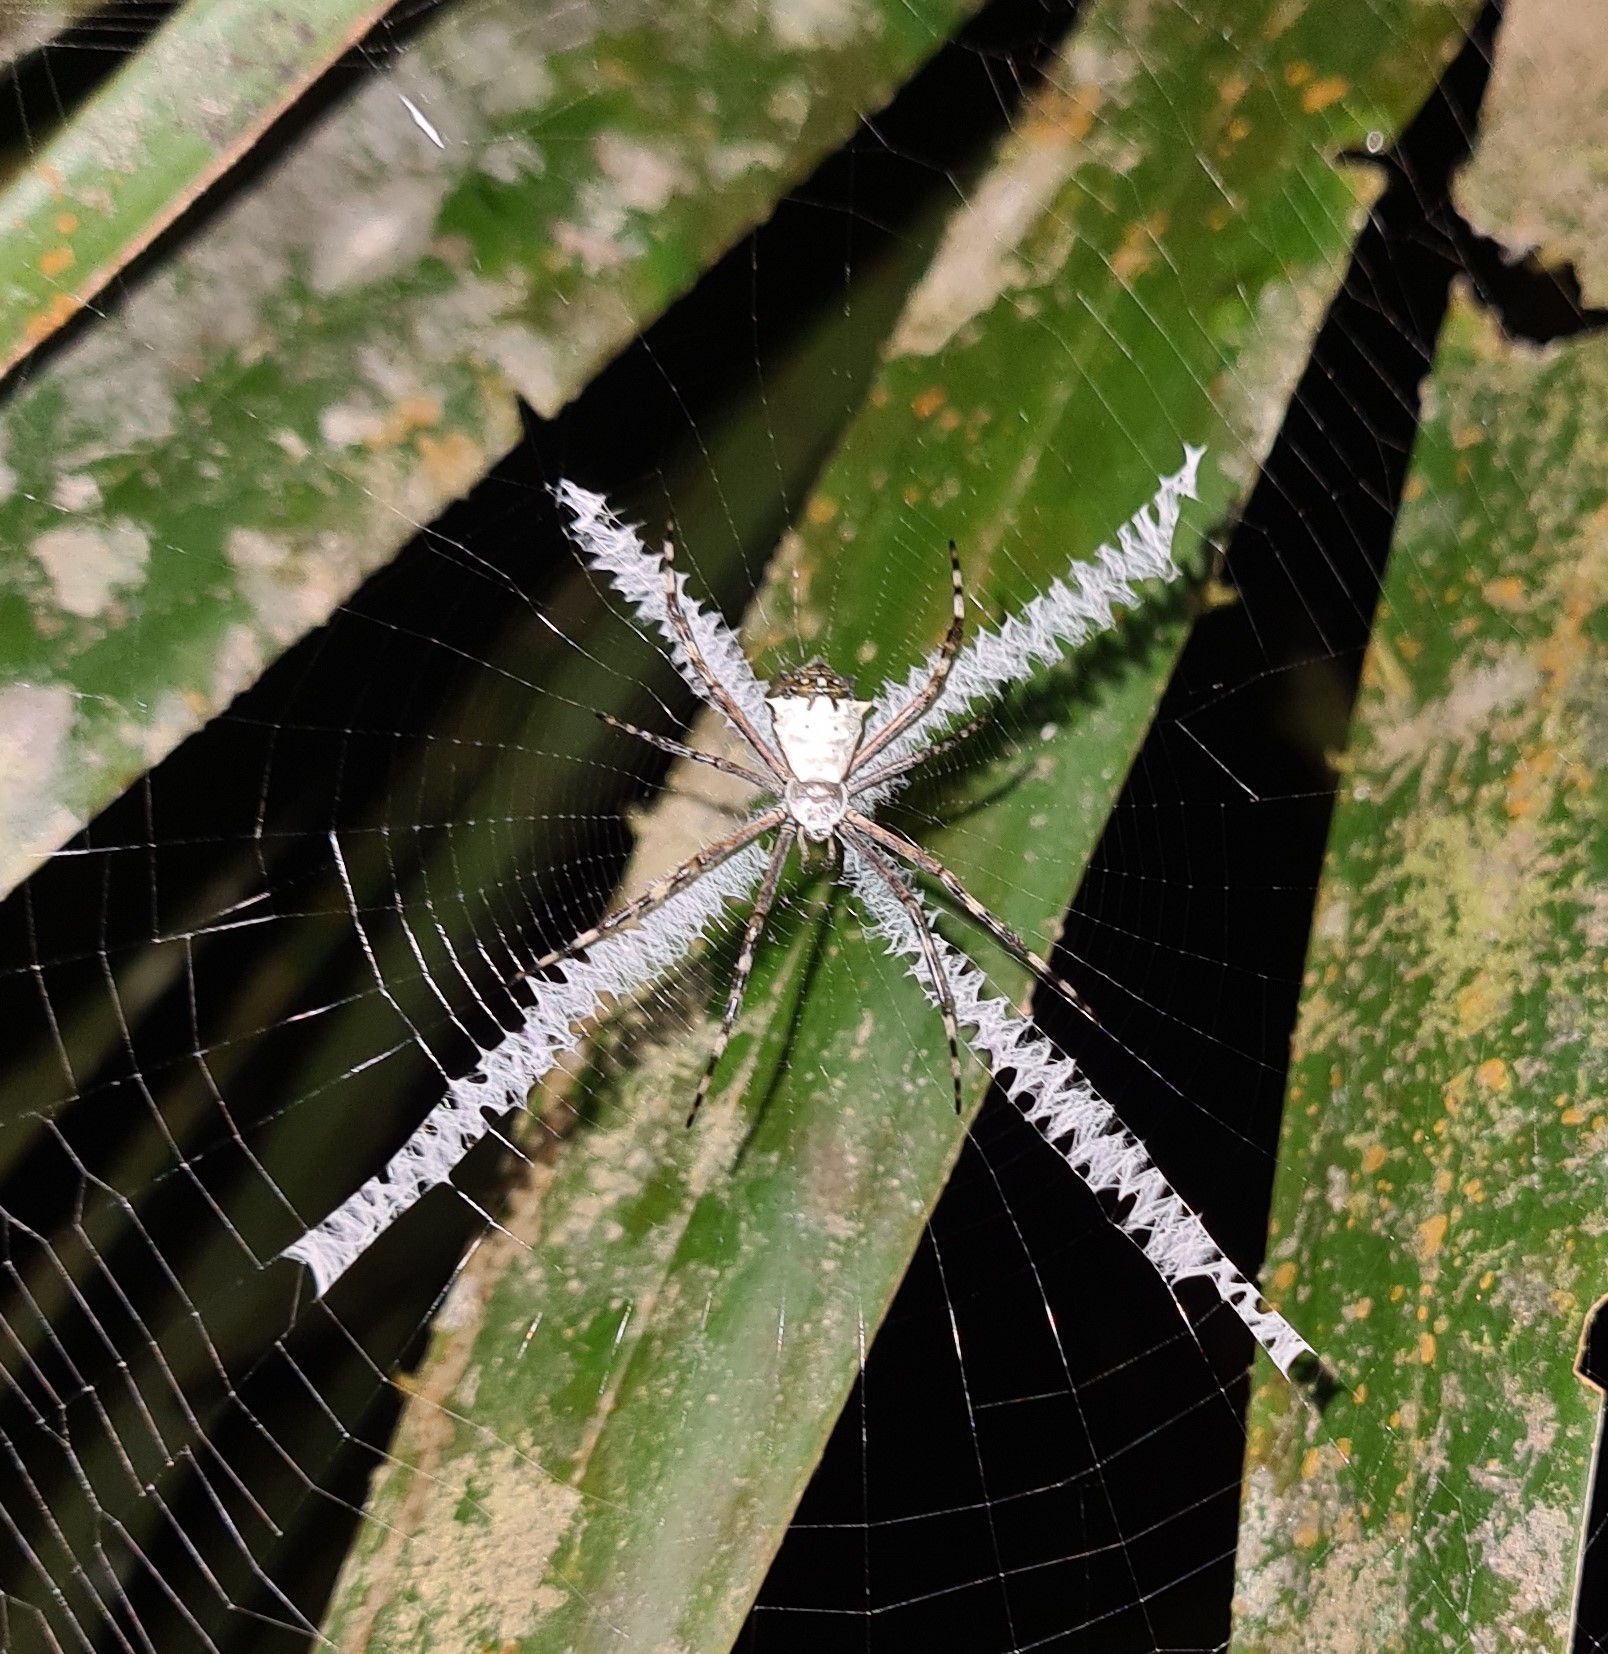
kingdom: Animalia
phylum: Arthropoda
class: Arachnida
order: Araneae
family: Araneidae
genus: Argiope
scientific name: Argiope submaronica
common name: Orb weavers
